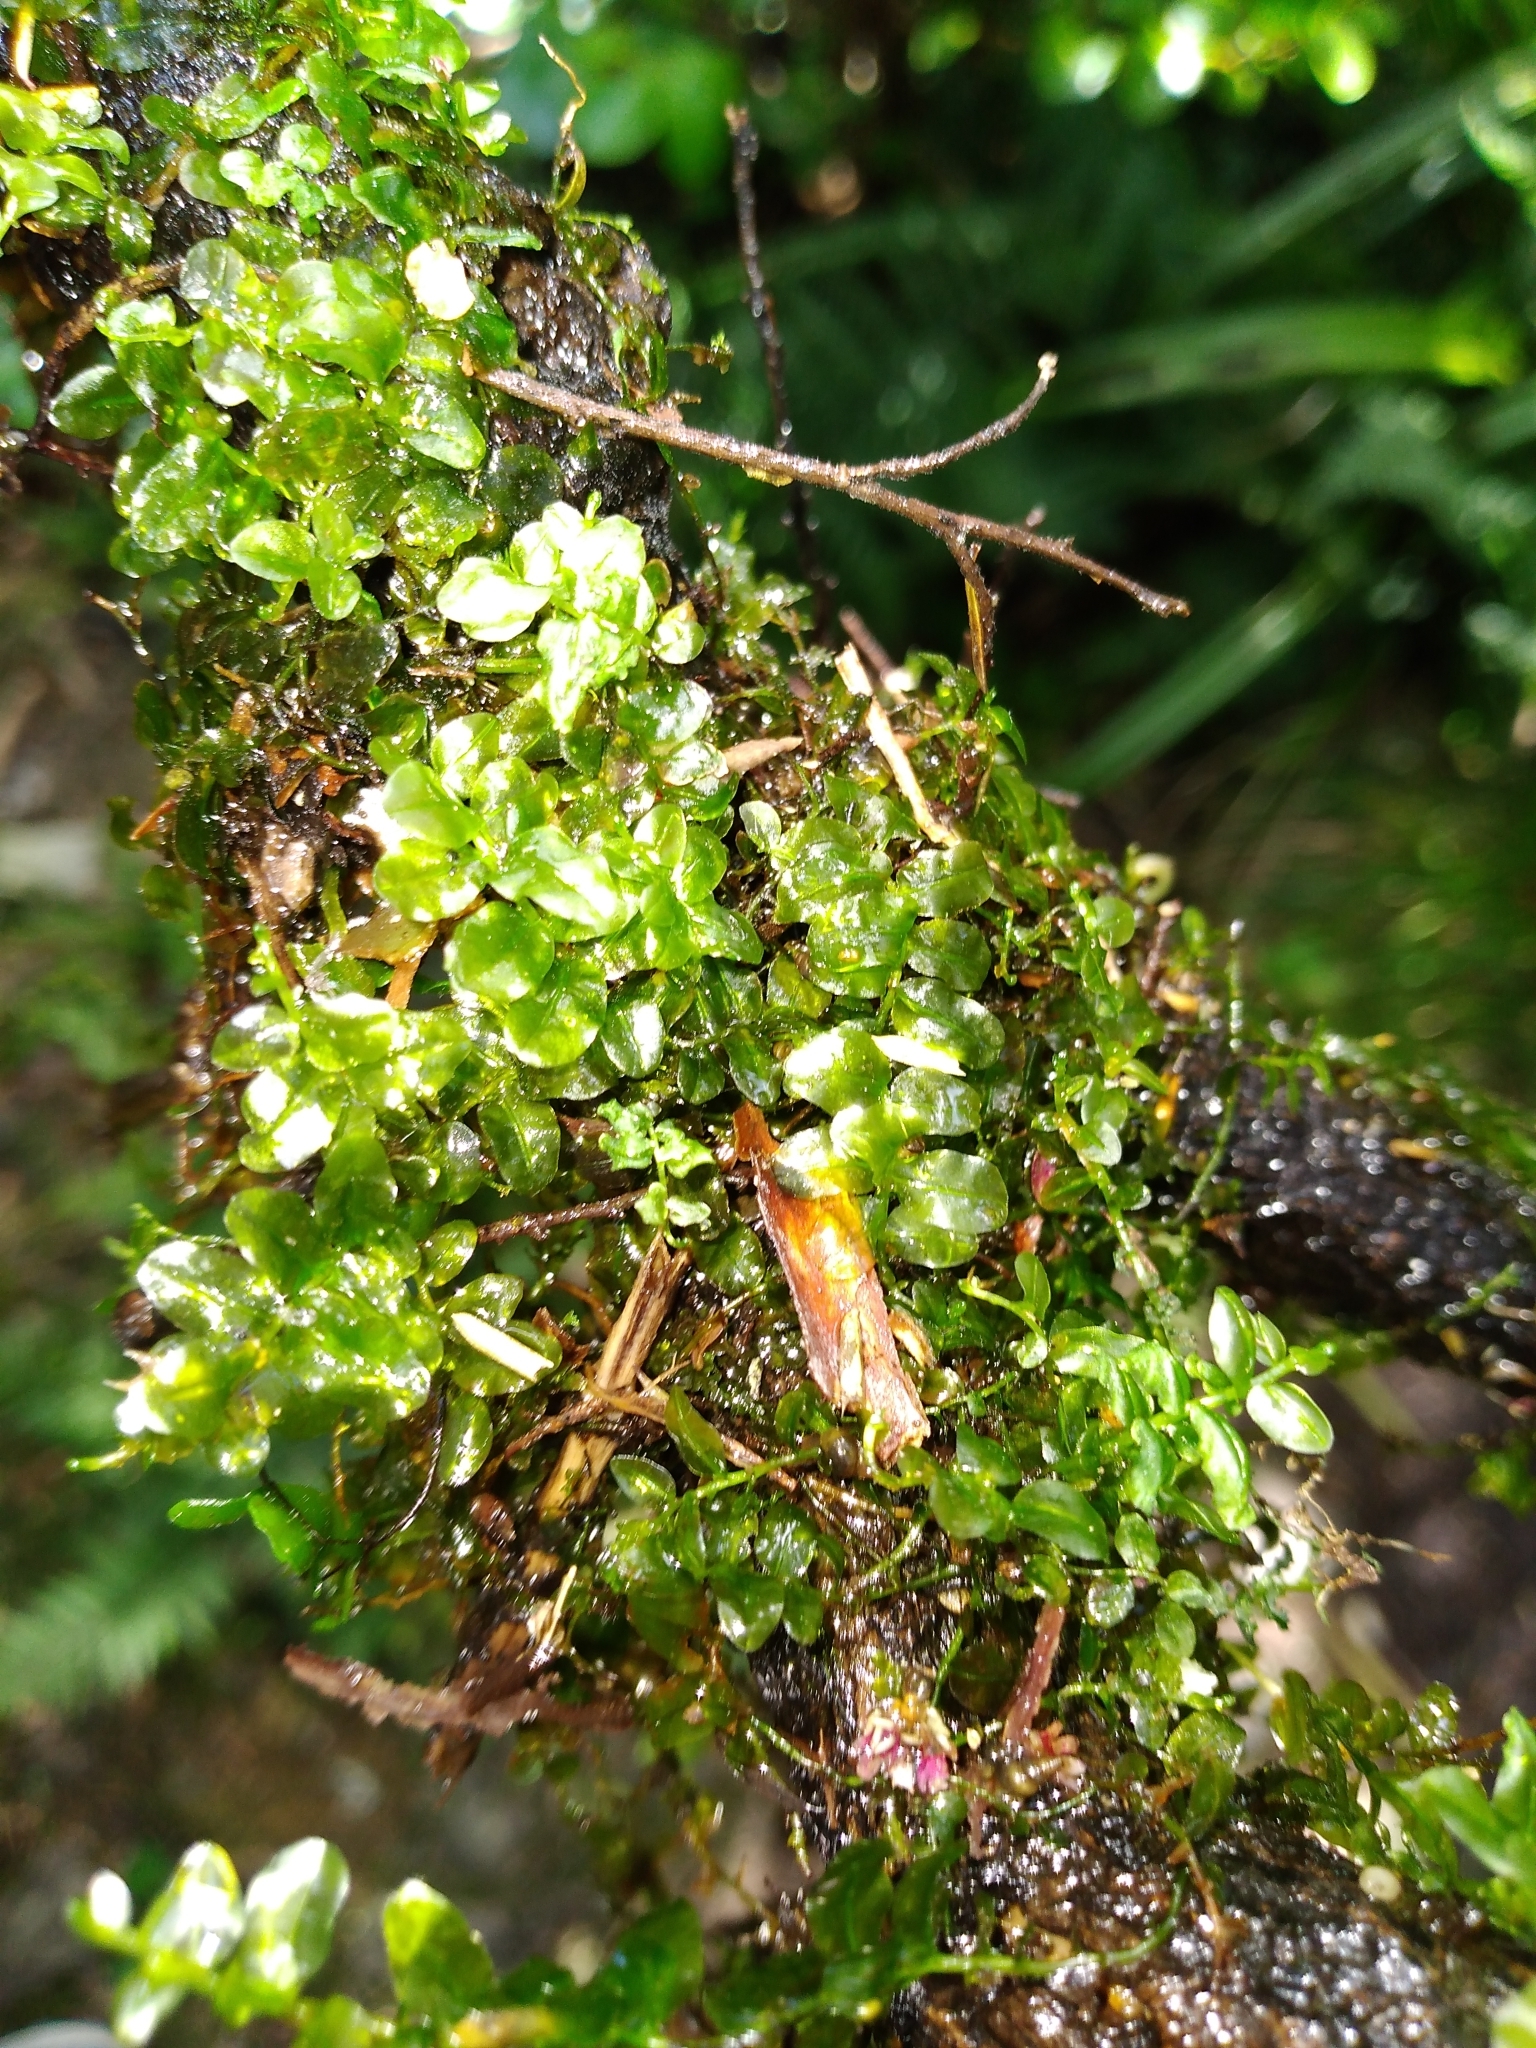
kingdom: Plantae
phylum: Bryophyta
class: Bryopsida
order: Bryales
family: Mniaceae
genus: Plagiomnium
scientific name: Plagiomnium novae-zealandiae
